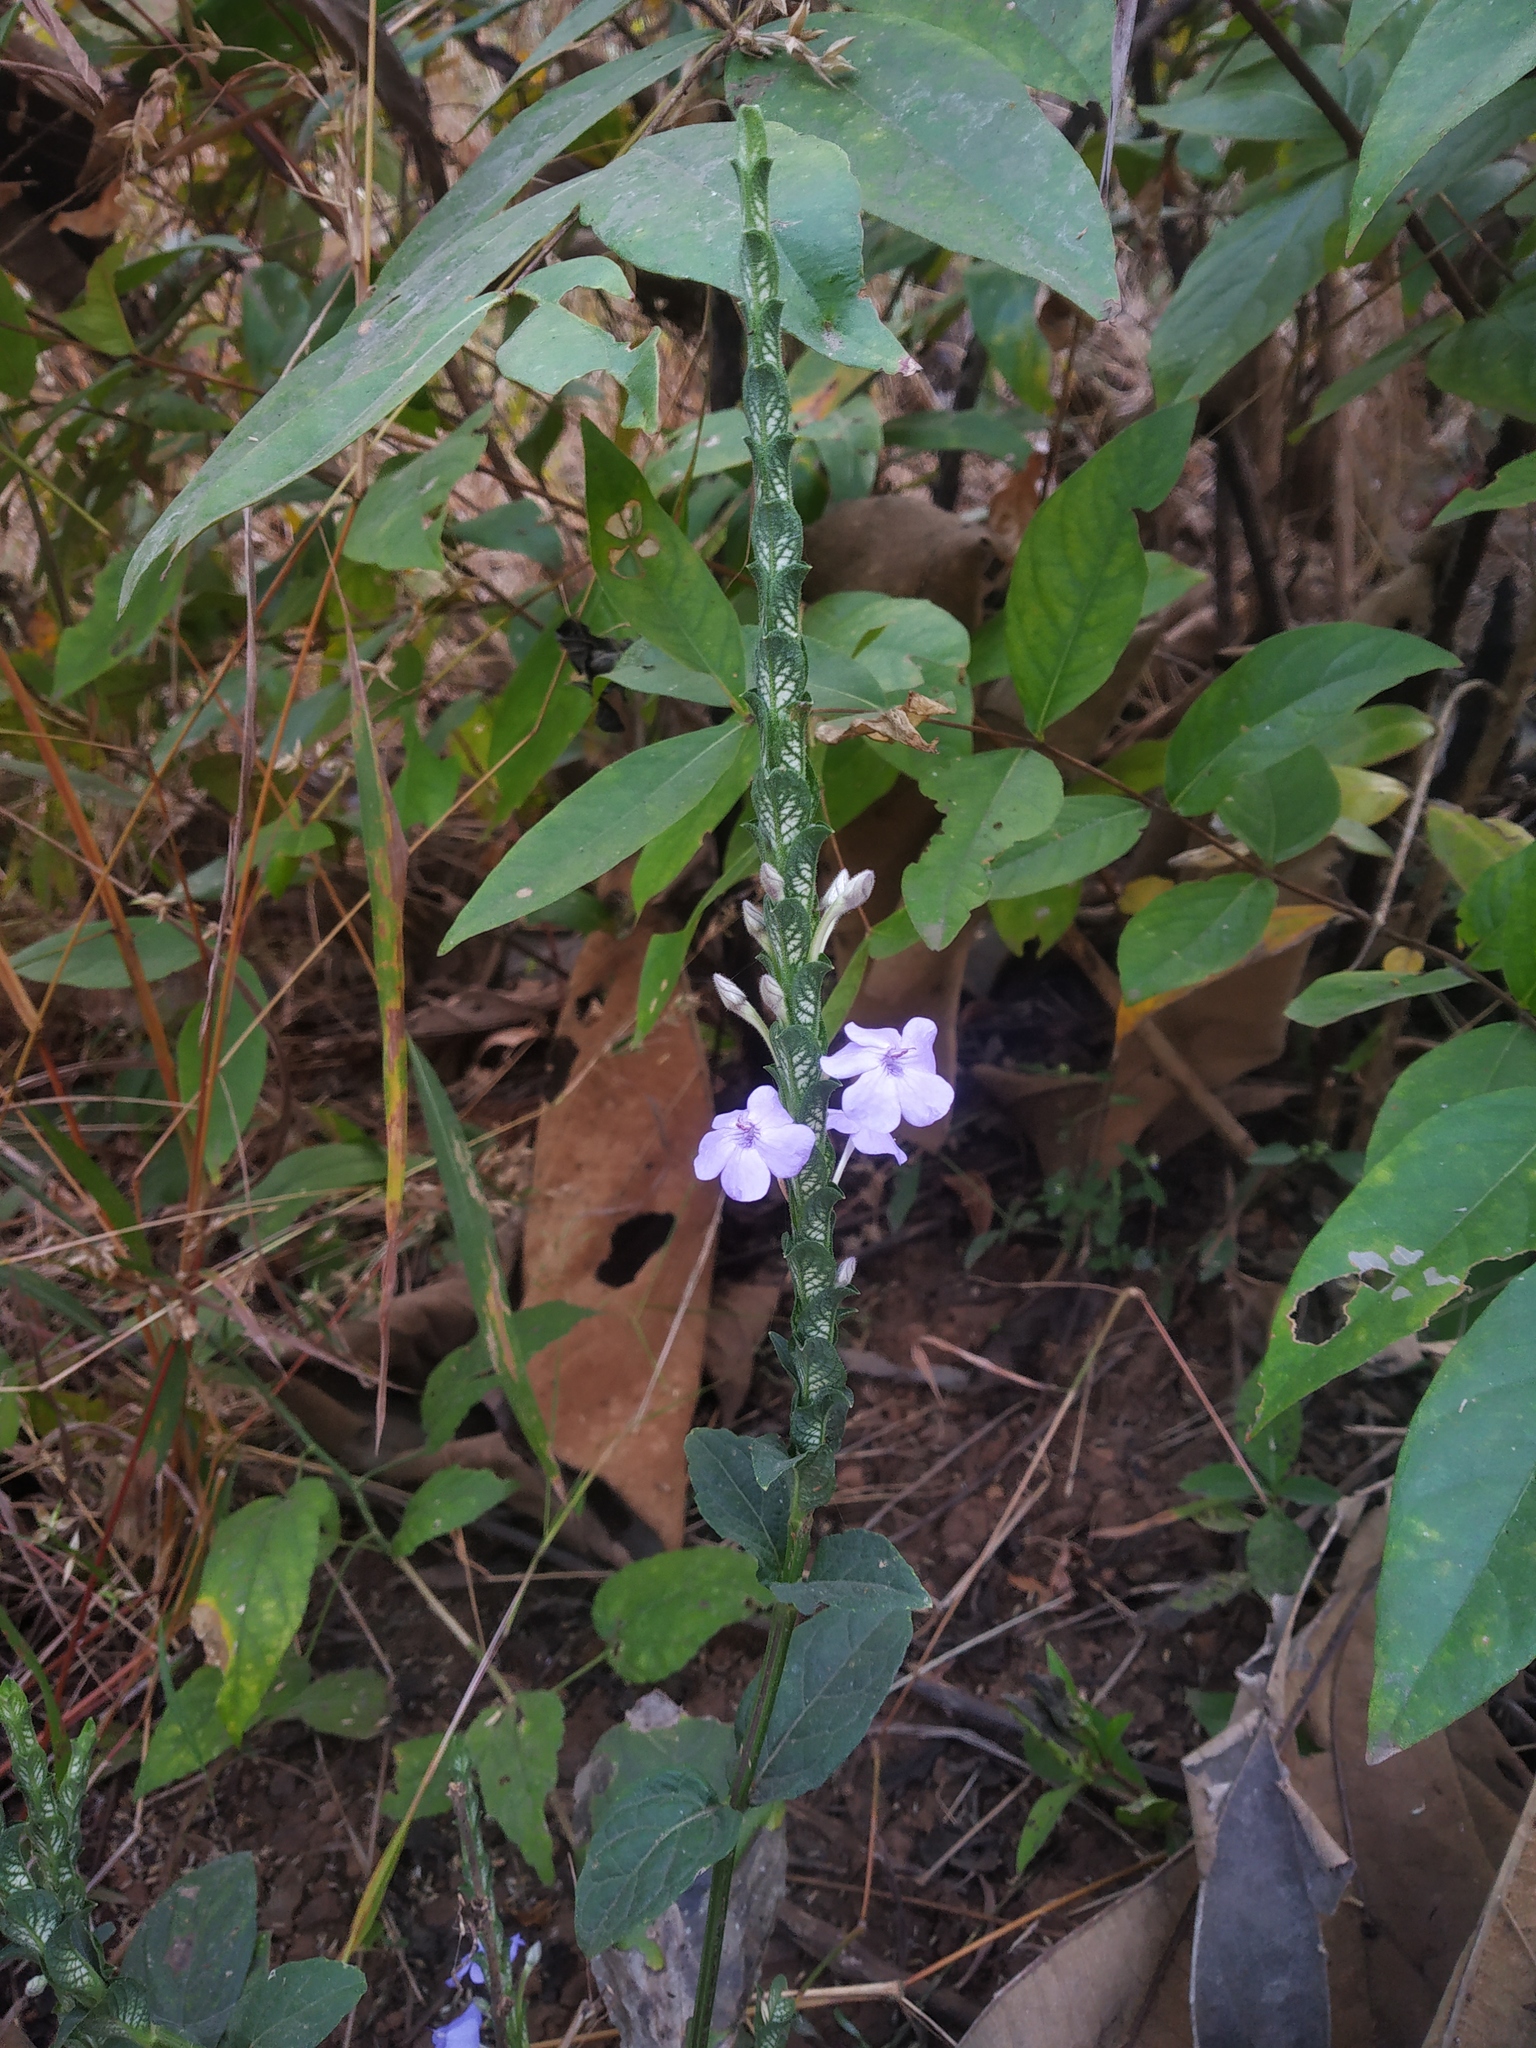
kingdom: Plantae
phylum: Tracheophyta
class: Magnoliopsida
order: Lamiales
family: Acanthaceae
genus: Eranthemum
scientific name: Eranthemum roseum
